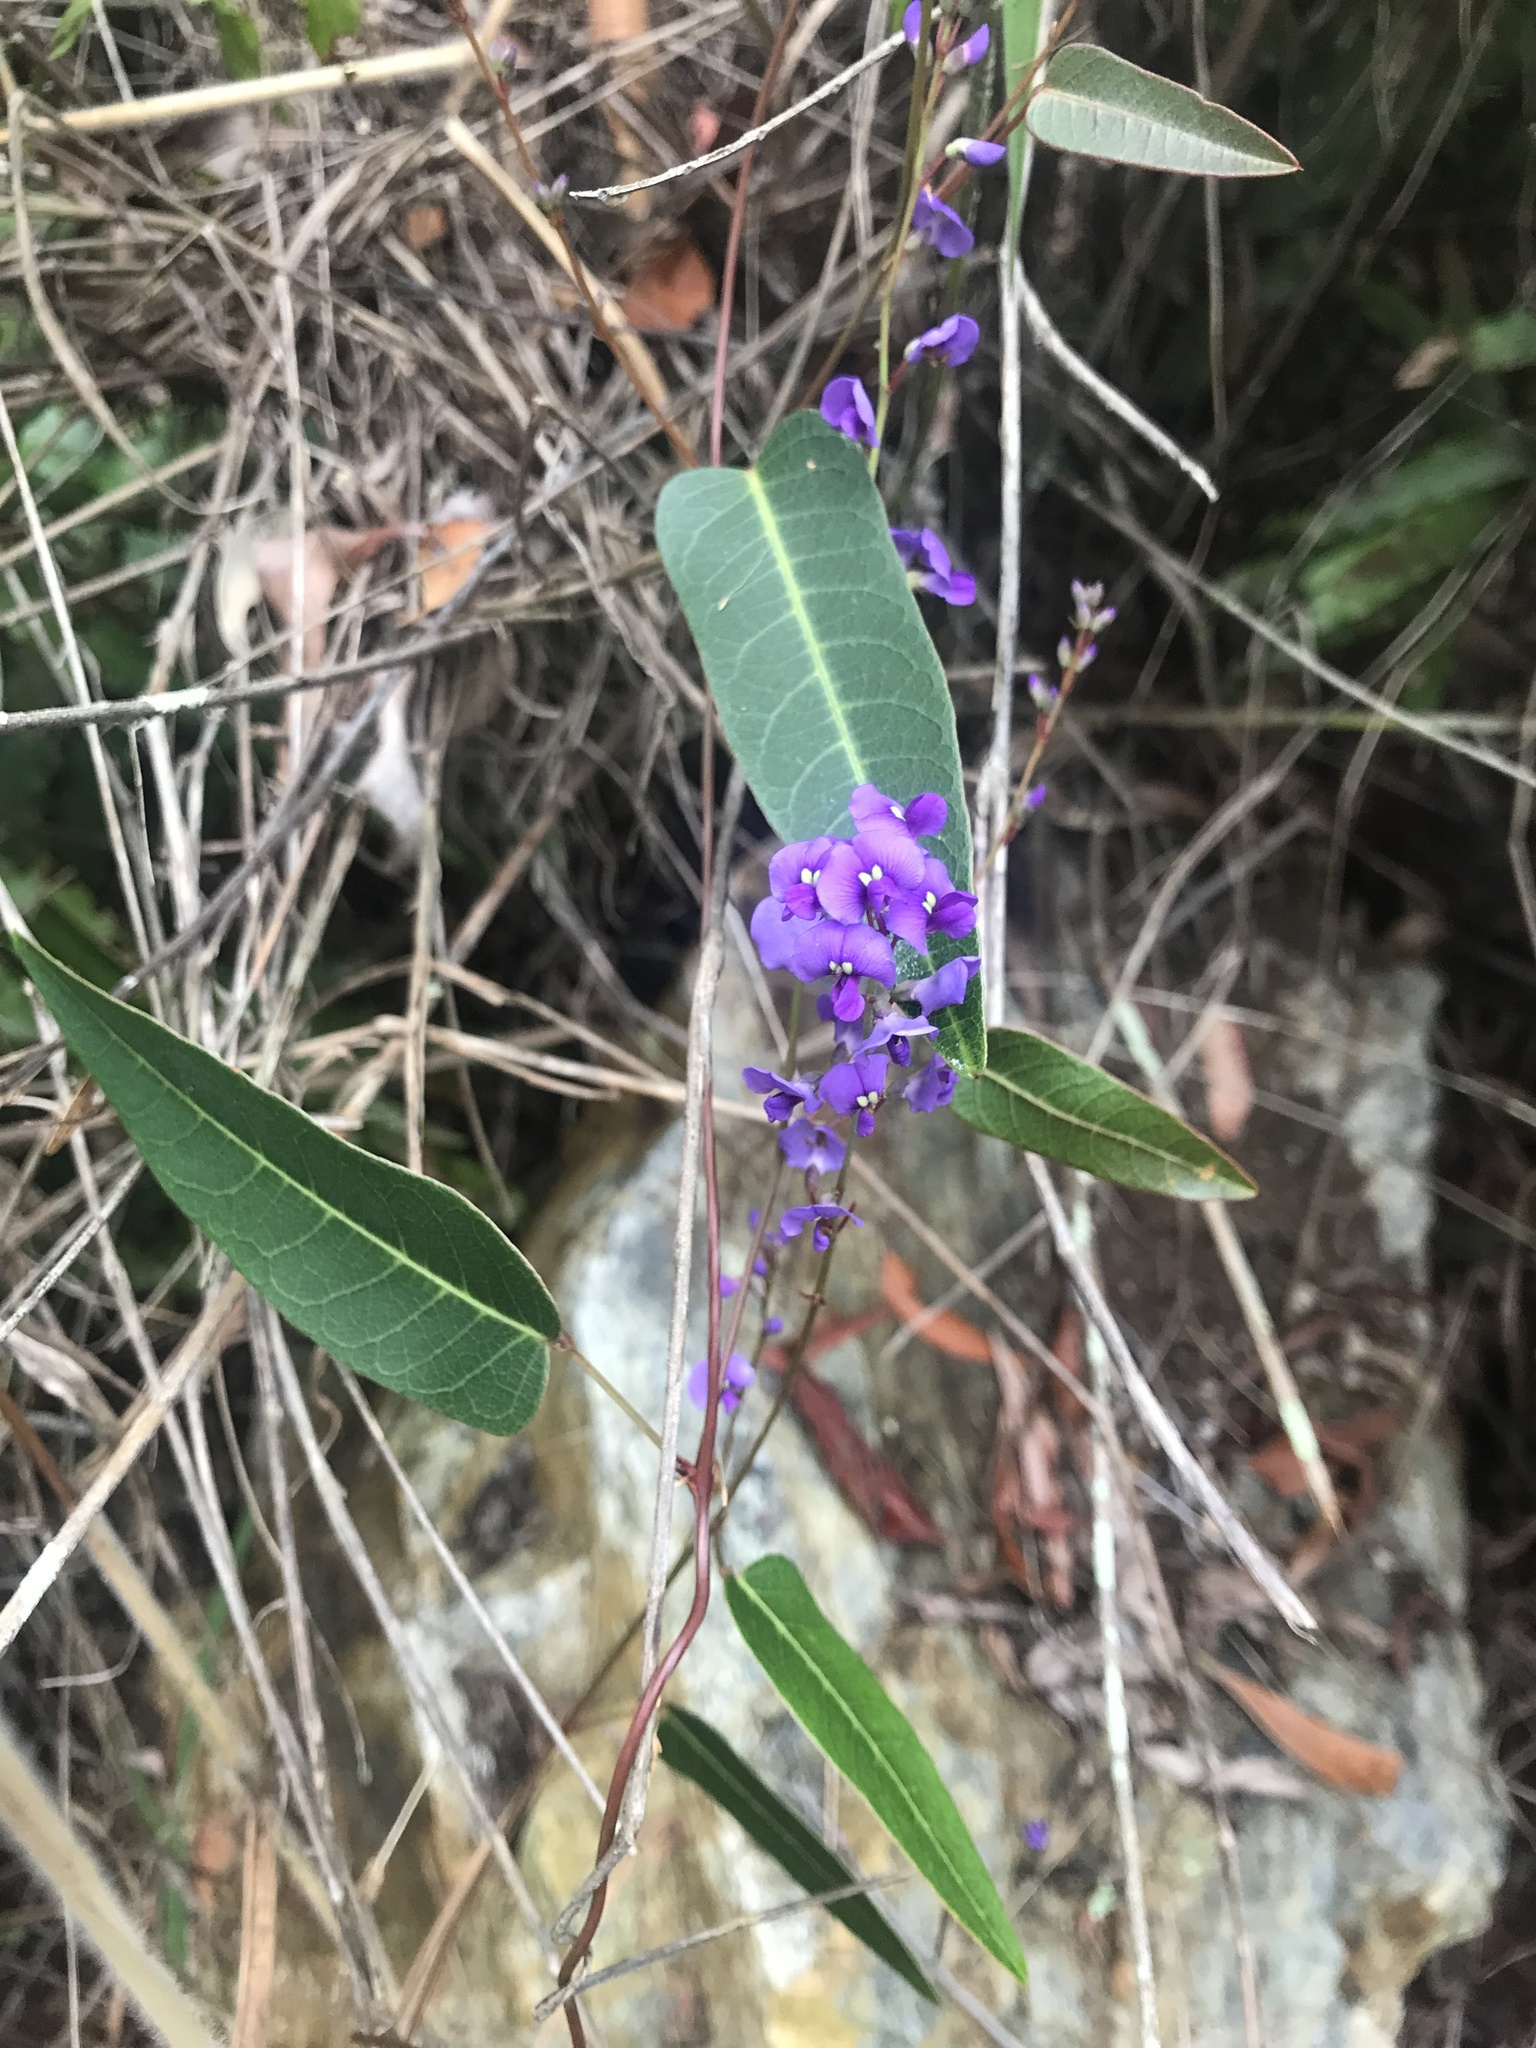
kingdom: Plantae
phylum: Tracheophyta
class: Magnoliopsida
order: Fabales
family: Fabaceae
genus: Hardenbergia
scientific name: Hardenbergia violacea
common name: Coral-pea
